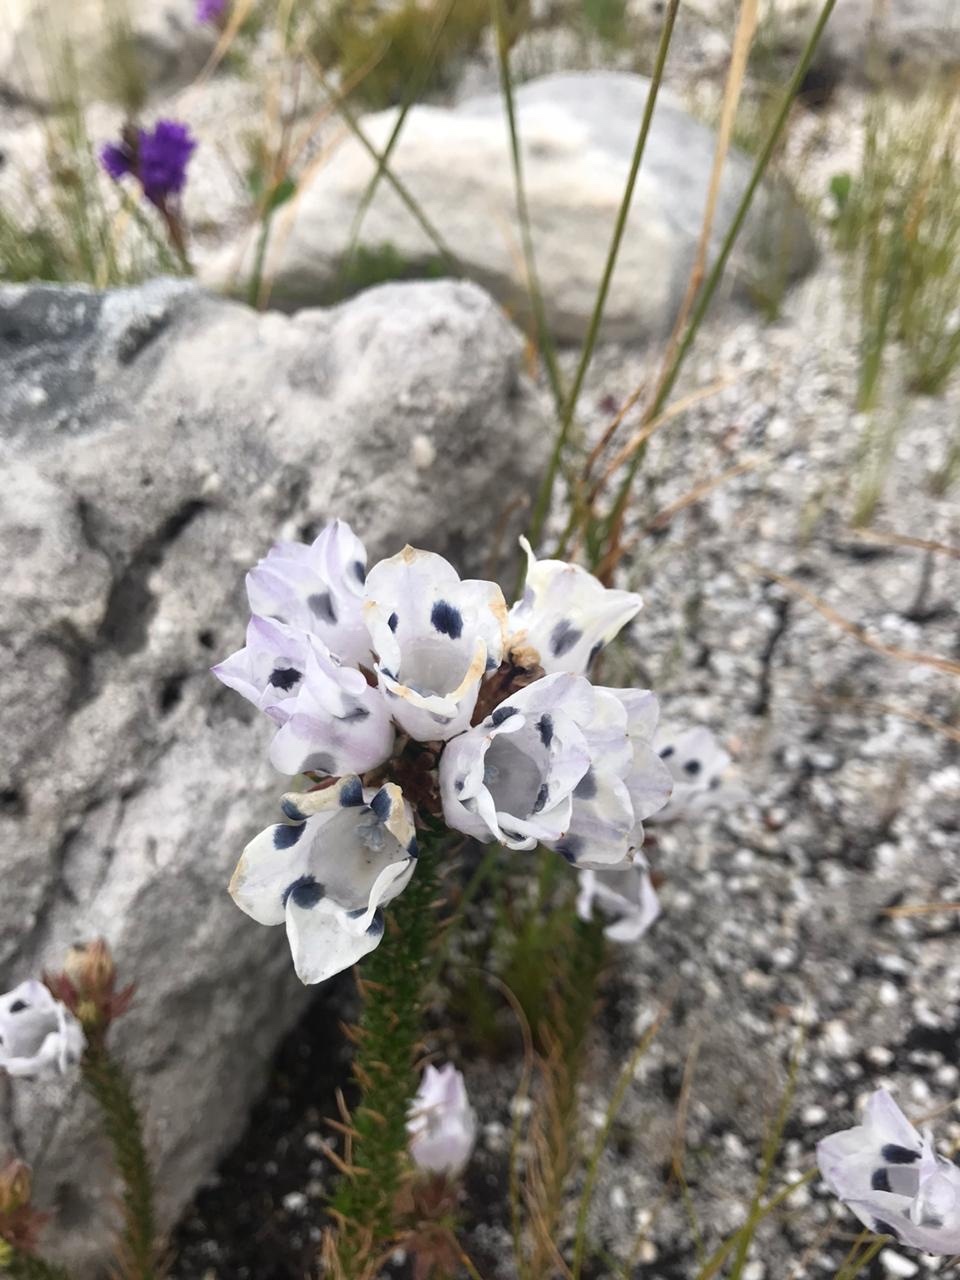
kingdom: Plantae
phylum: Tracheophyta
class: Magnoliopsida
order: Asterales
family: Campanulaceae
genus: Roella
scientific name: Roella maculata
